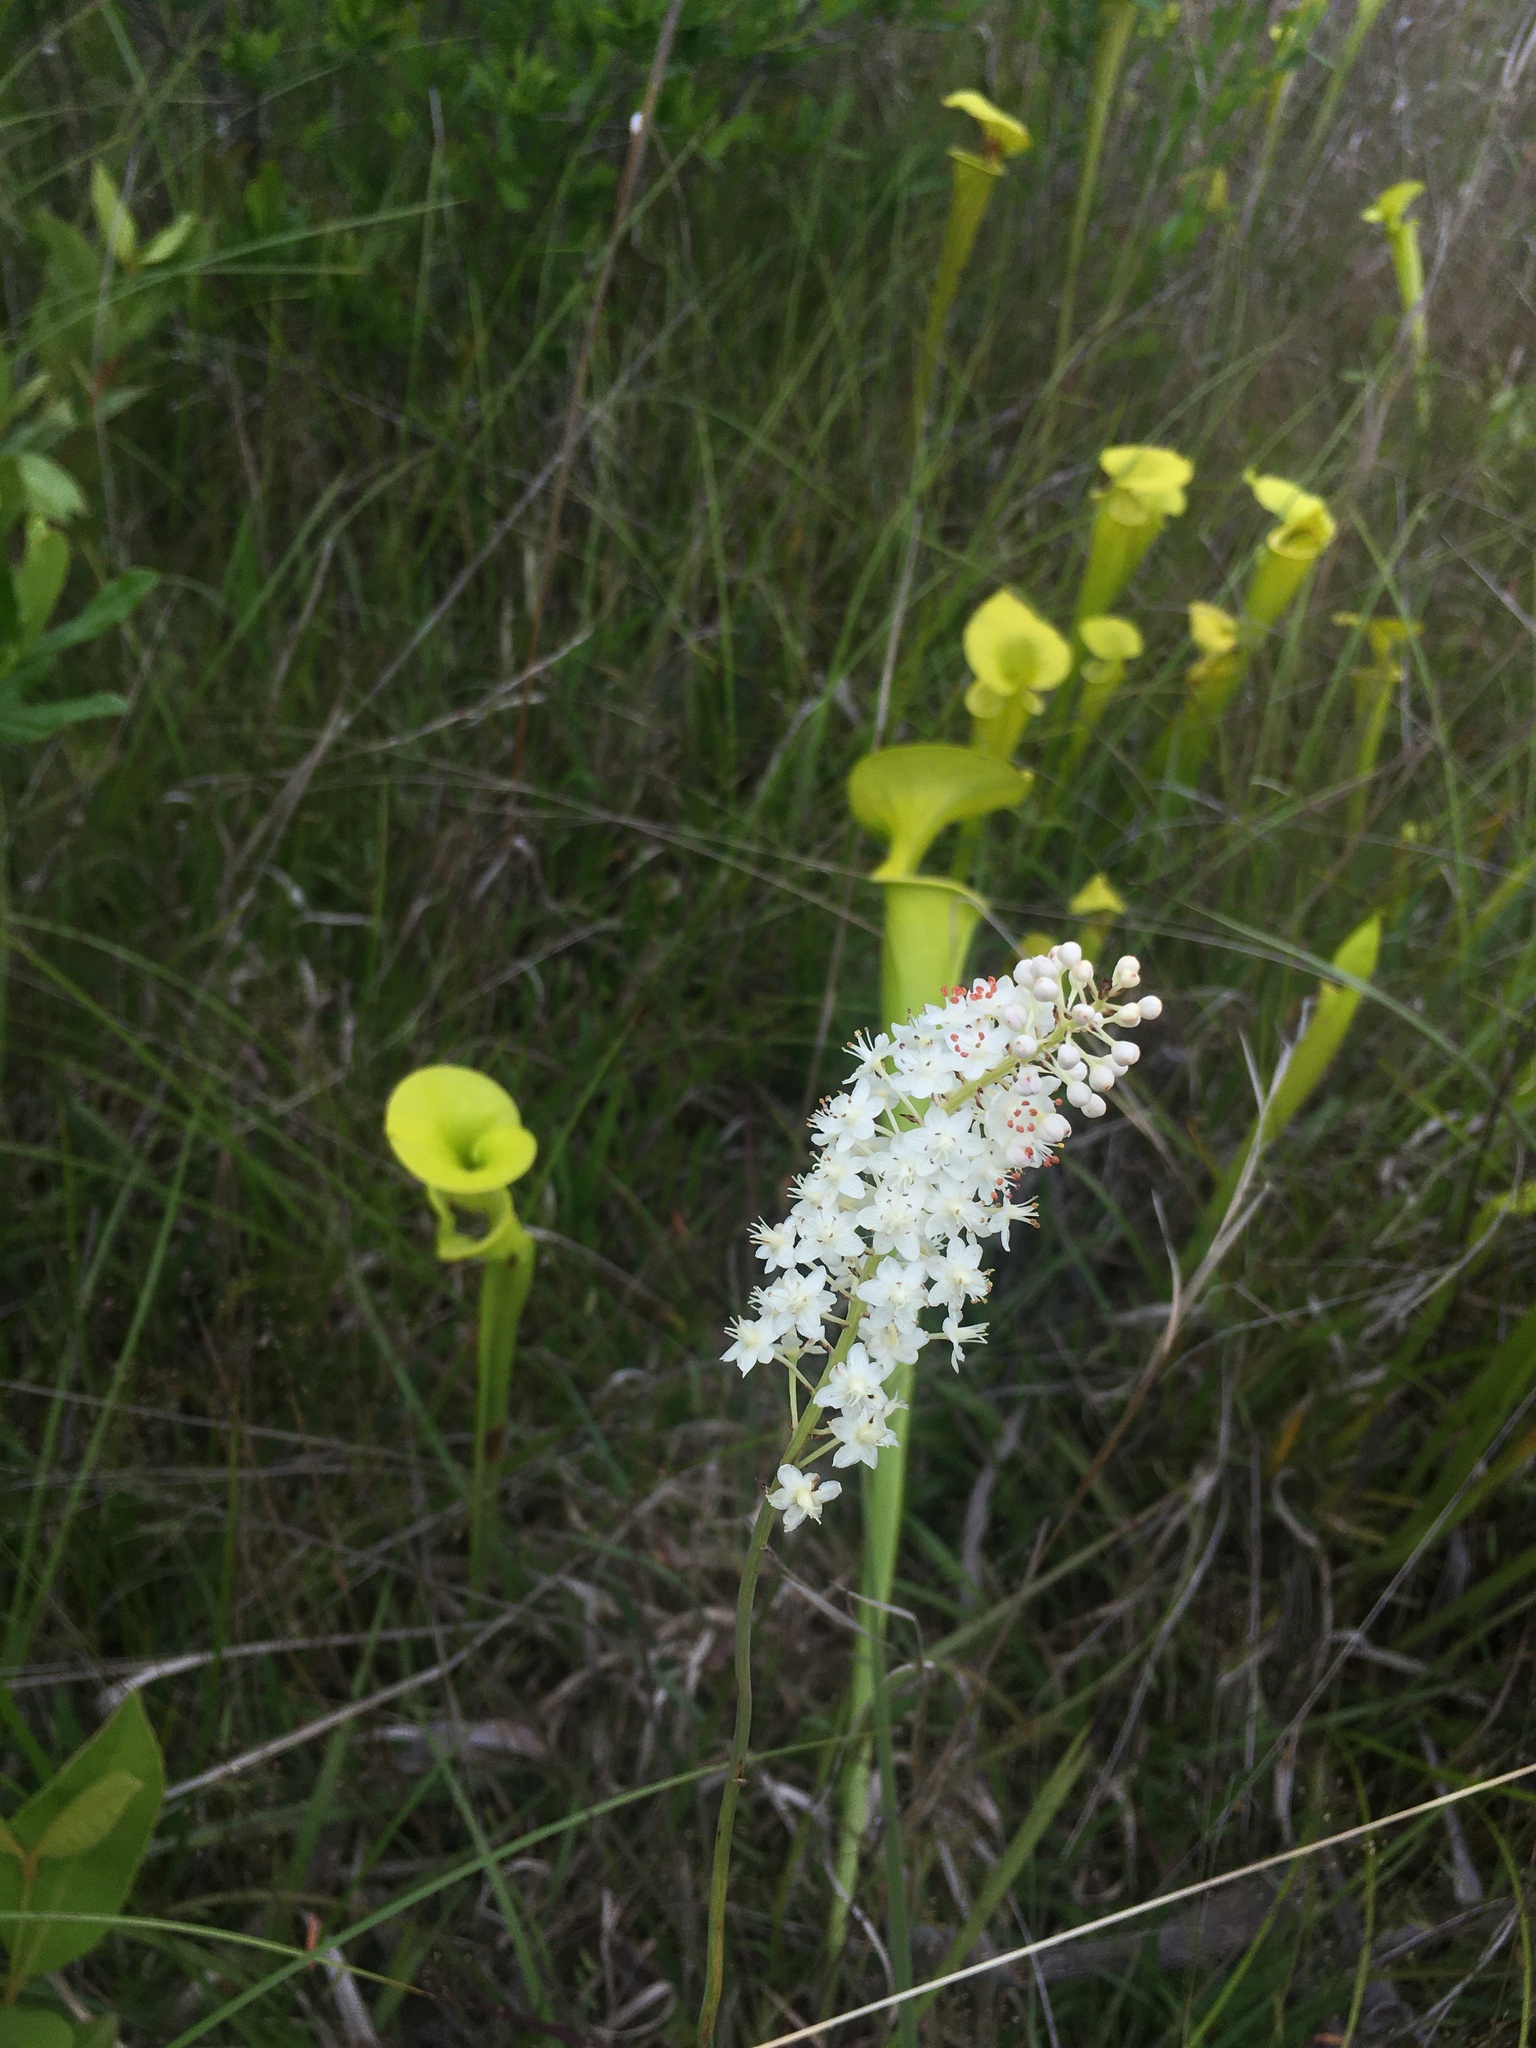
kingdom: Plantae
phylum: Tracheophyta
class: Liliopsida
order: Liliales
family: Melanthiaceae
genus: Stenanthium
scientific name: Stenanthium densum
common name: Crow-poison
